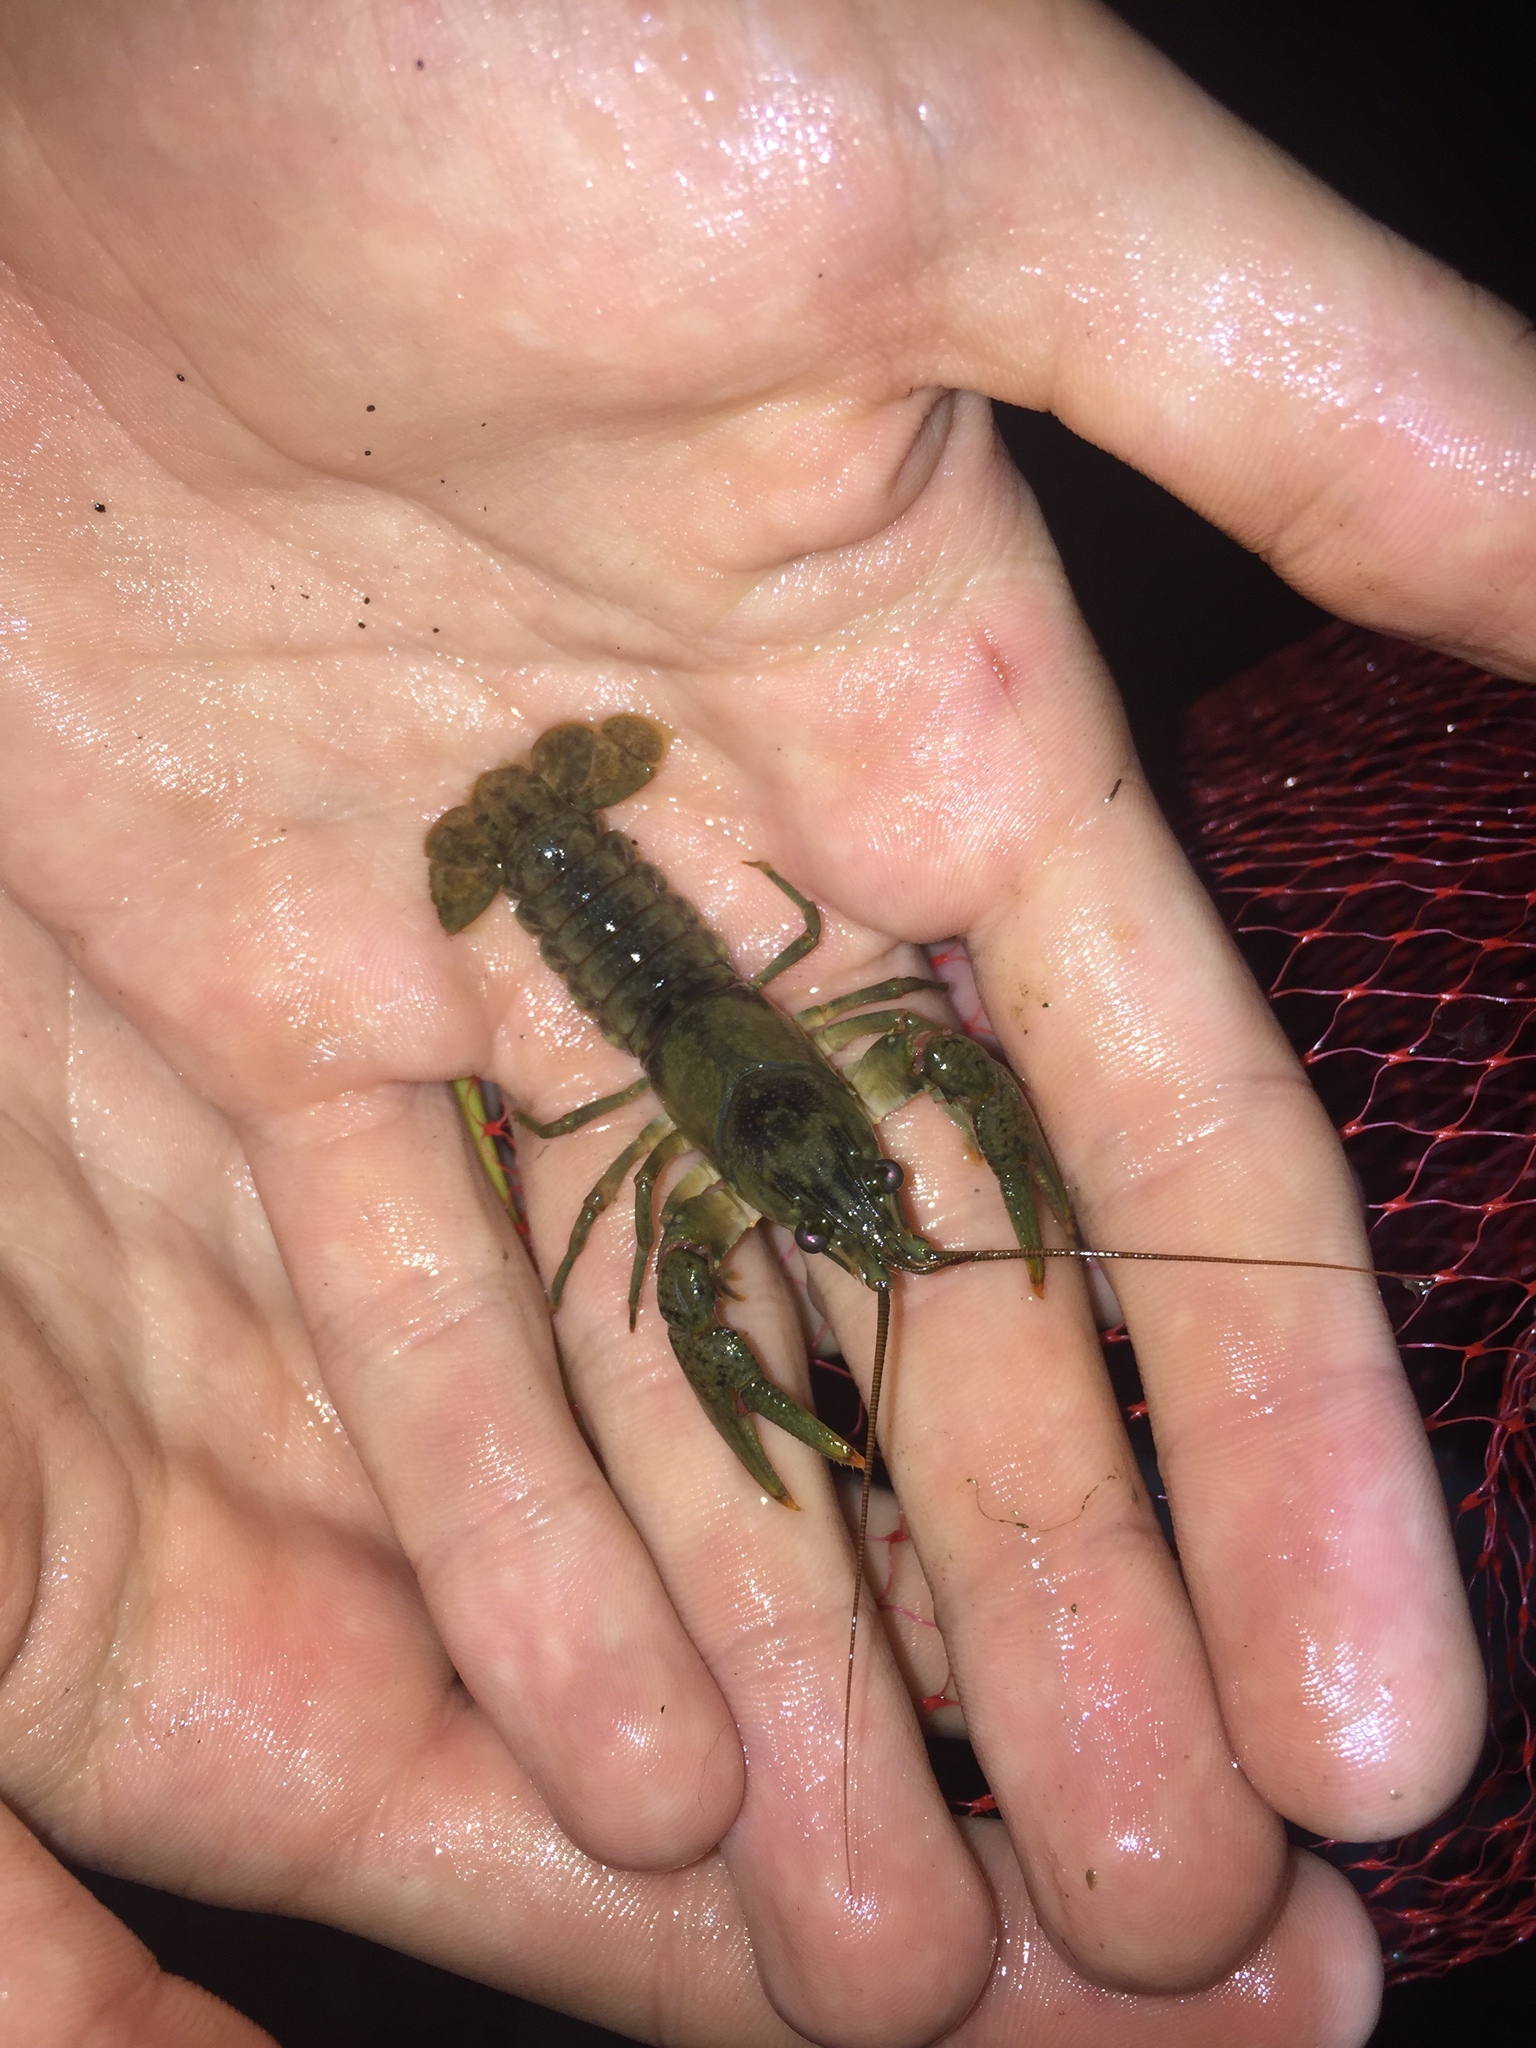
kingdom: Animalia
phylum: Arthropoda
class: Malacostraca
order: Decapoda
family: Cambaridae
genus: Faxonius
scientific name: Faxonius propinquus
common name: Northern clearwater crayfish
